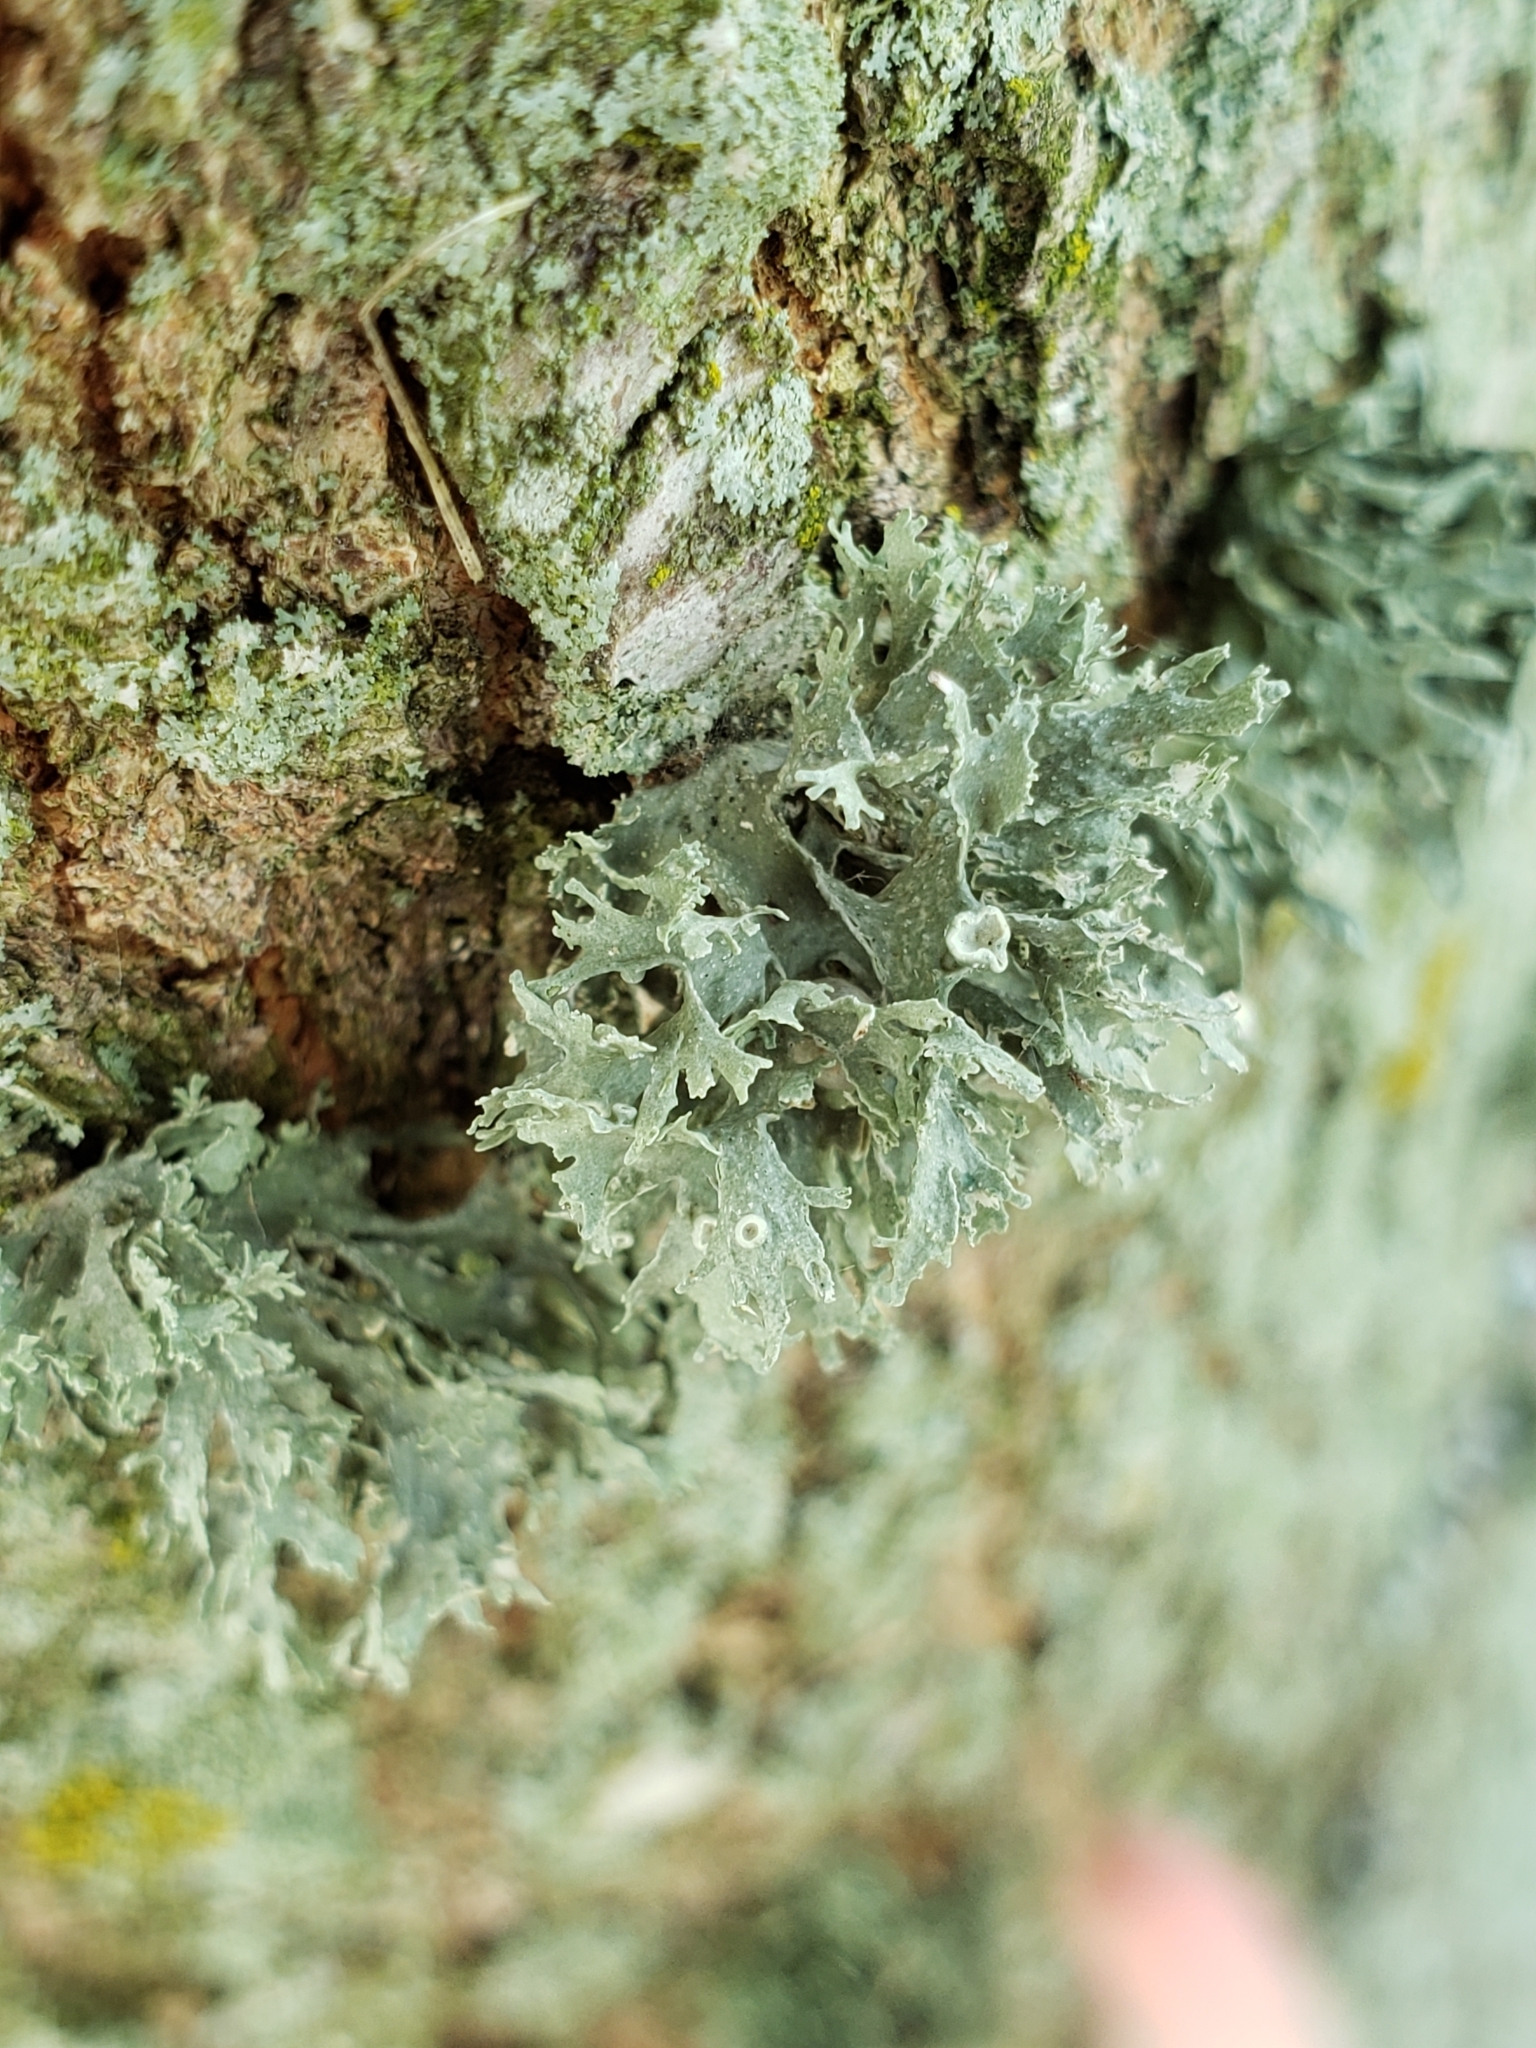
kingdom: Fungi
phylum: Ascomycota
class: Lecanoromycetes
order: Lecanorales
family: Ramalinaceae
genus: Ramalina
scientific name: Ramalina americana
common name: Sinewed bush lichen
